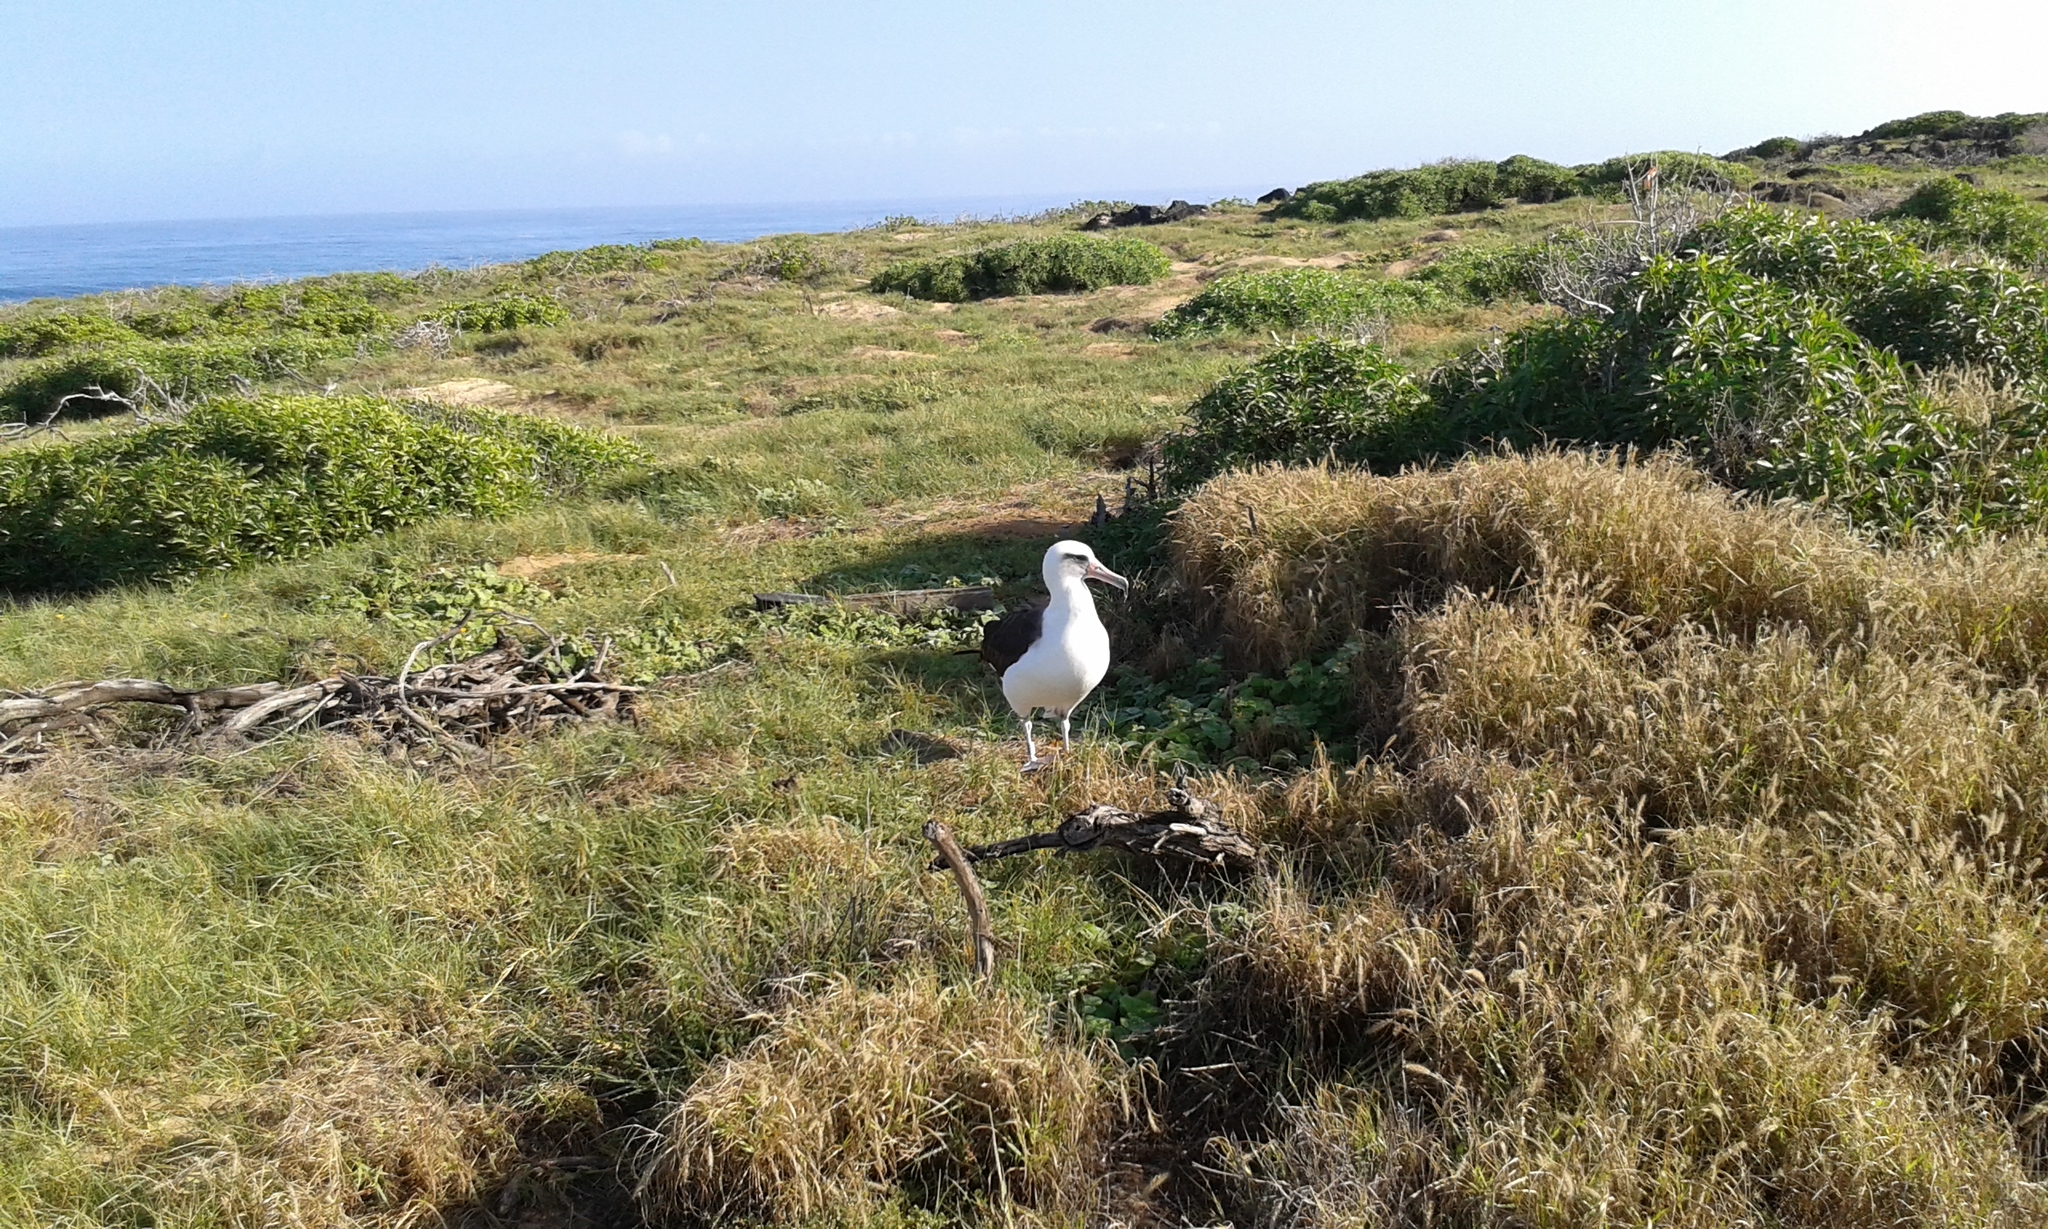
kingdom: Animalia
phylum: Chordata
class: Aves
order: Procellariiformes
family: Diomedeidae
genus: Phoebastria
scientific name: Phoebastria immutabilis
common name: Laysan albatross
